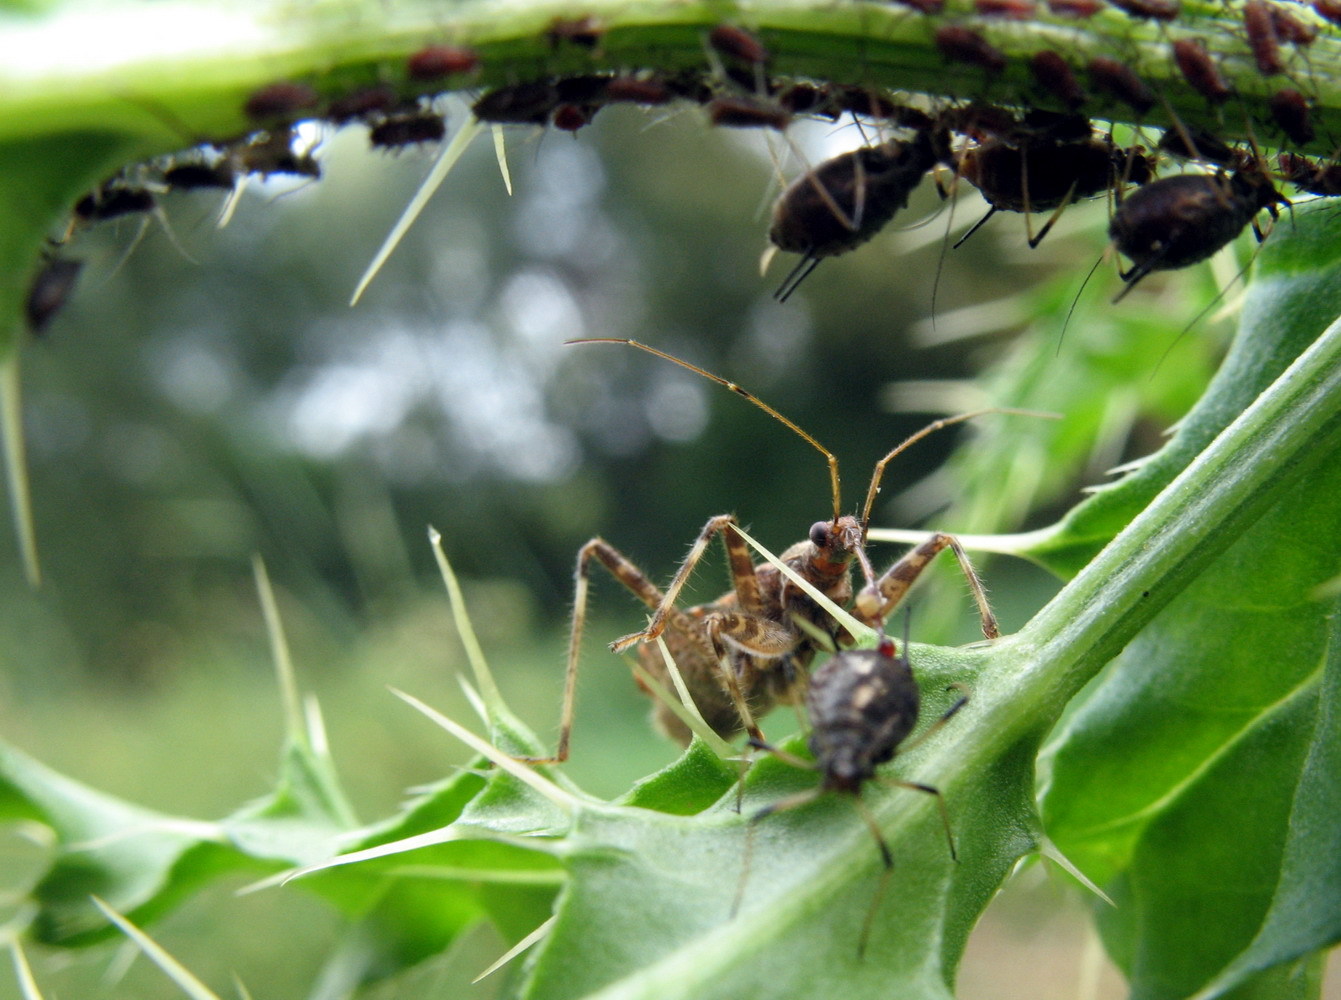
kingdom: Animalia
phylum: Arthropoda
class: Insecta
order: Hemiptera
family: Nabidae
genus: Himacerus
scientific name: Himacerus apterus
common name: Tree damsel bug
